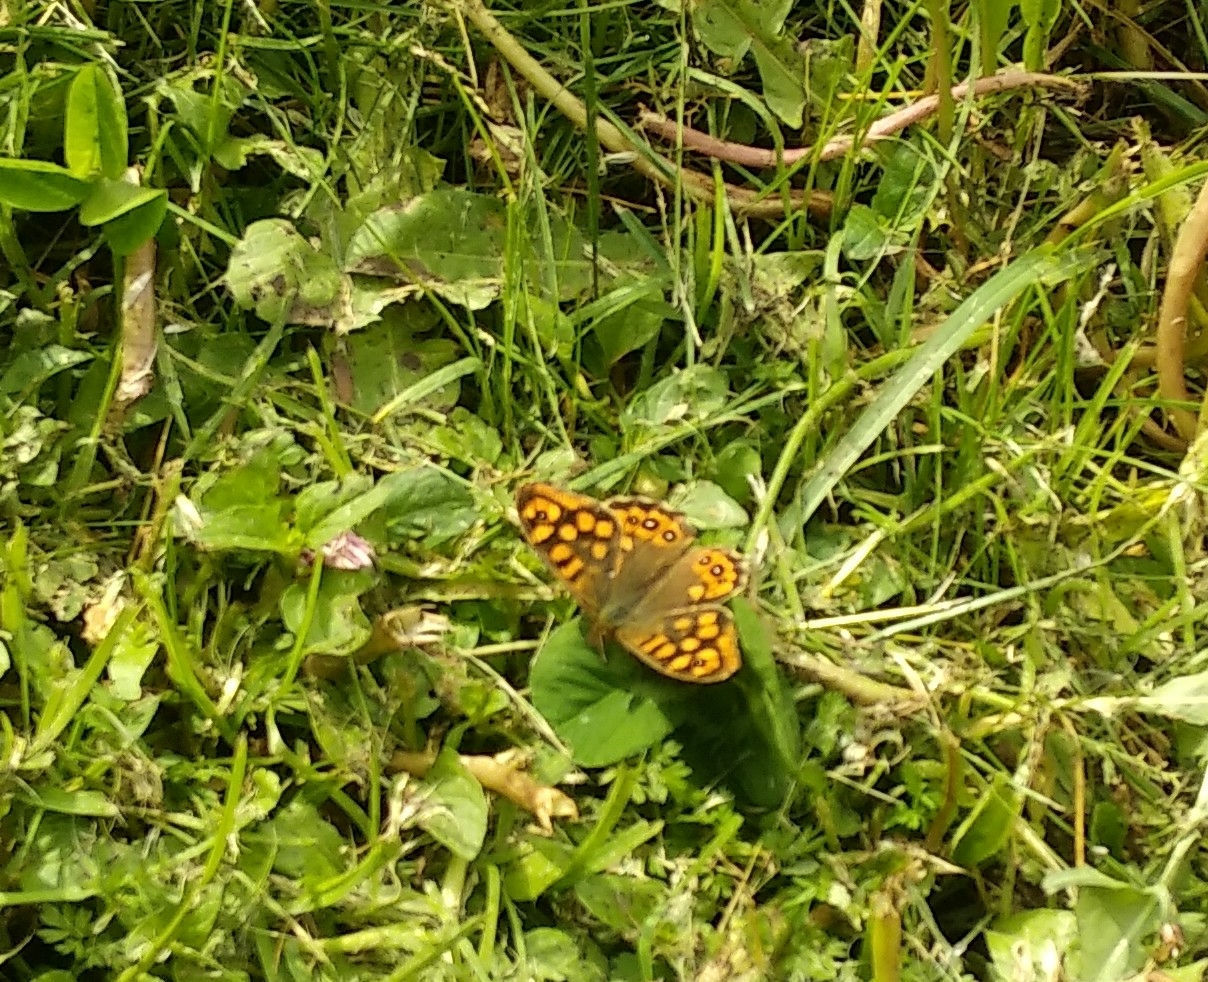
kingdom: Animalia
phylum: Arthropoda
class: Insecta
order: Lepidoptera
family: Nymphalidae
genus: Pararge
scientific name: Pararge aegeria
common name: Speckled wood
